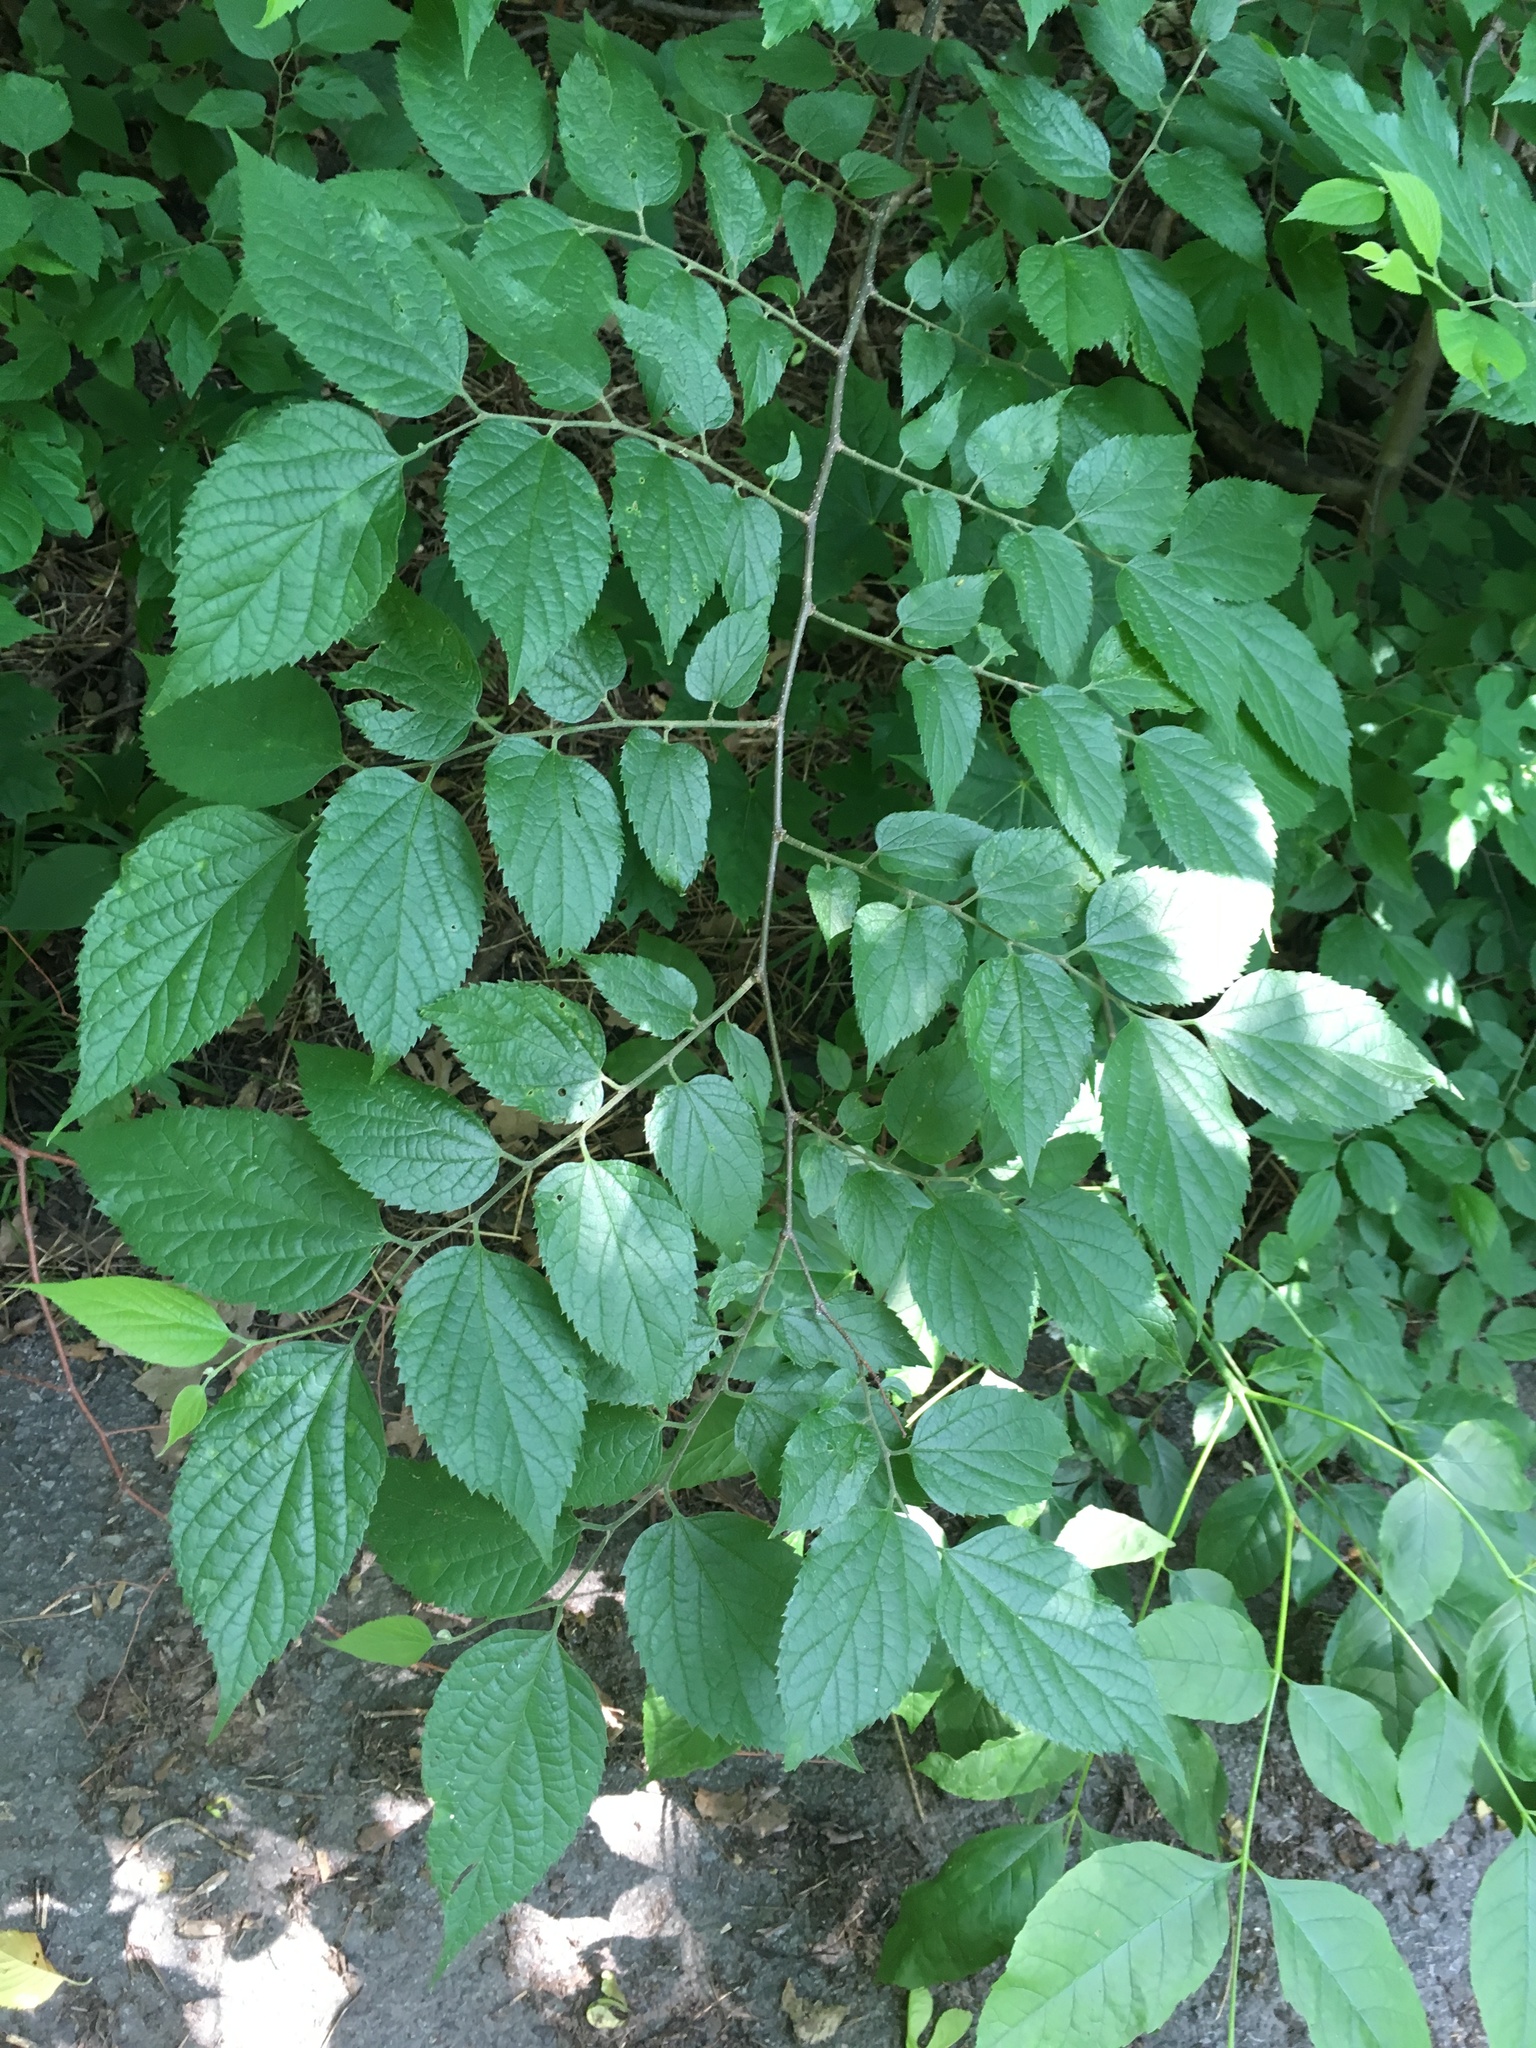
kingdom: Plantae
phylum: Tracheophyta
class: Magnoliopsida
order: Rosales
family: Cannabaceae
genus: Celtis
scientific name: Celtis occidentalis
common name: Common hackberry
